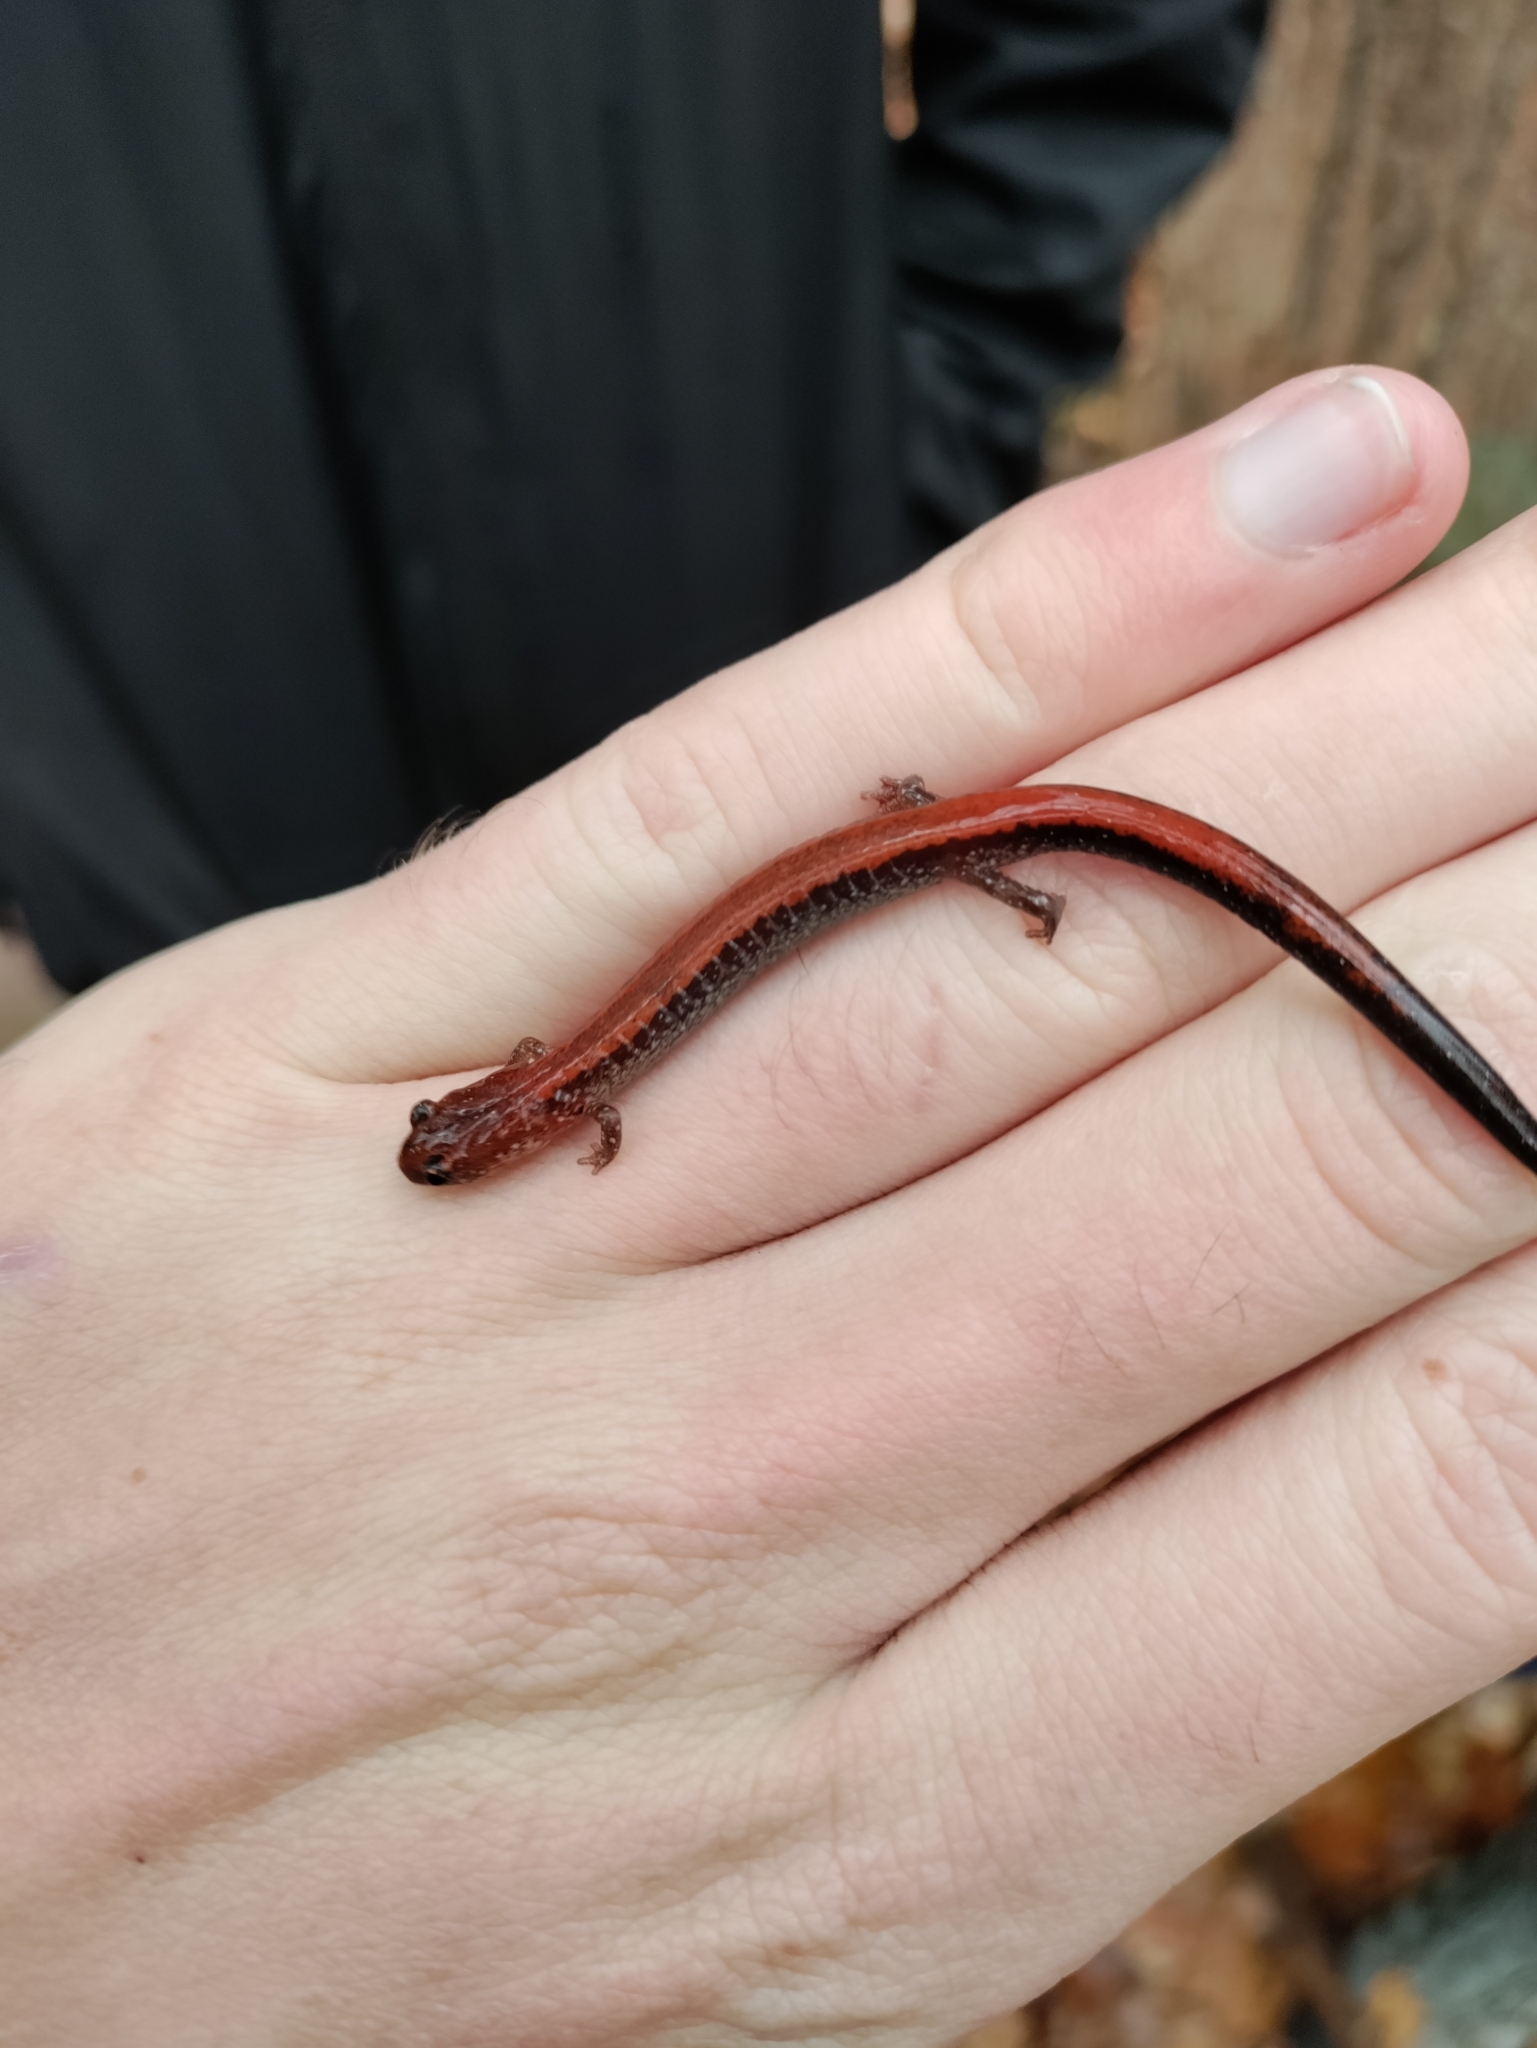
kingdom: Animalia
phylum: Chordata
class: Amphibia
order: Caudata
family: Plethodontidae
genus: Plethodon
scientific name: Plethodon cinereus
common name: Redback salamander
